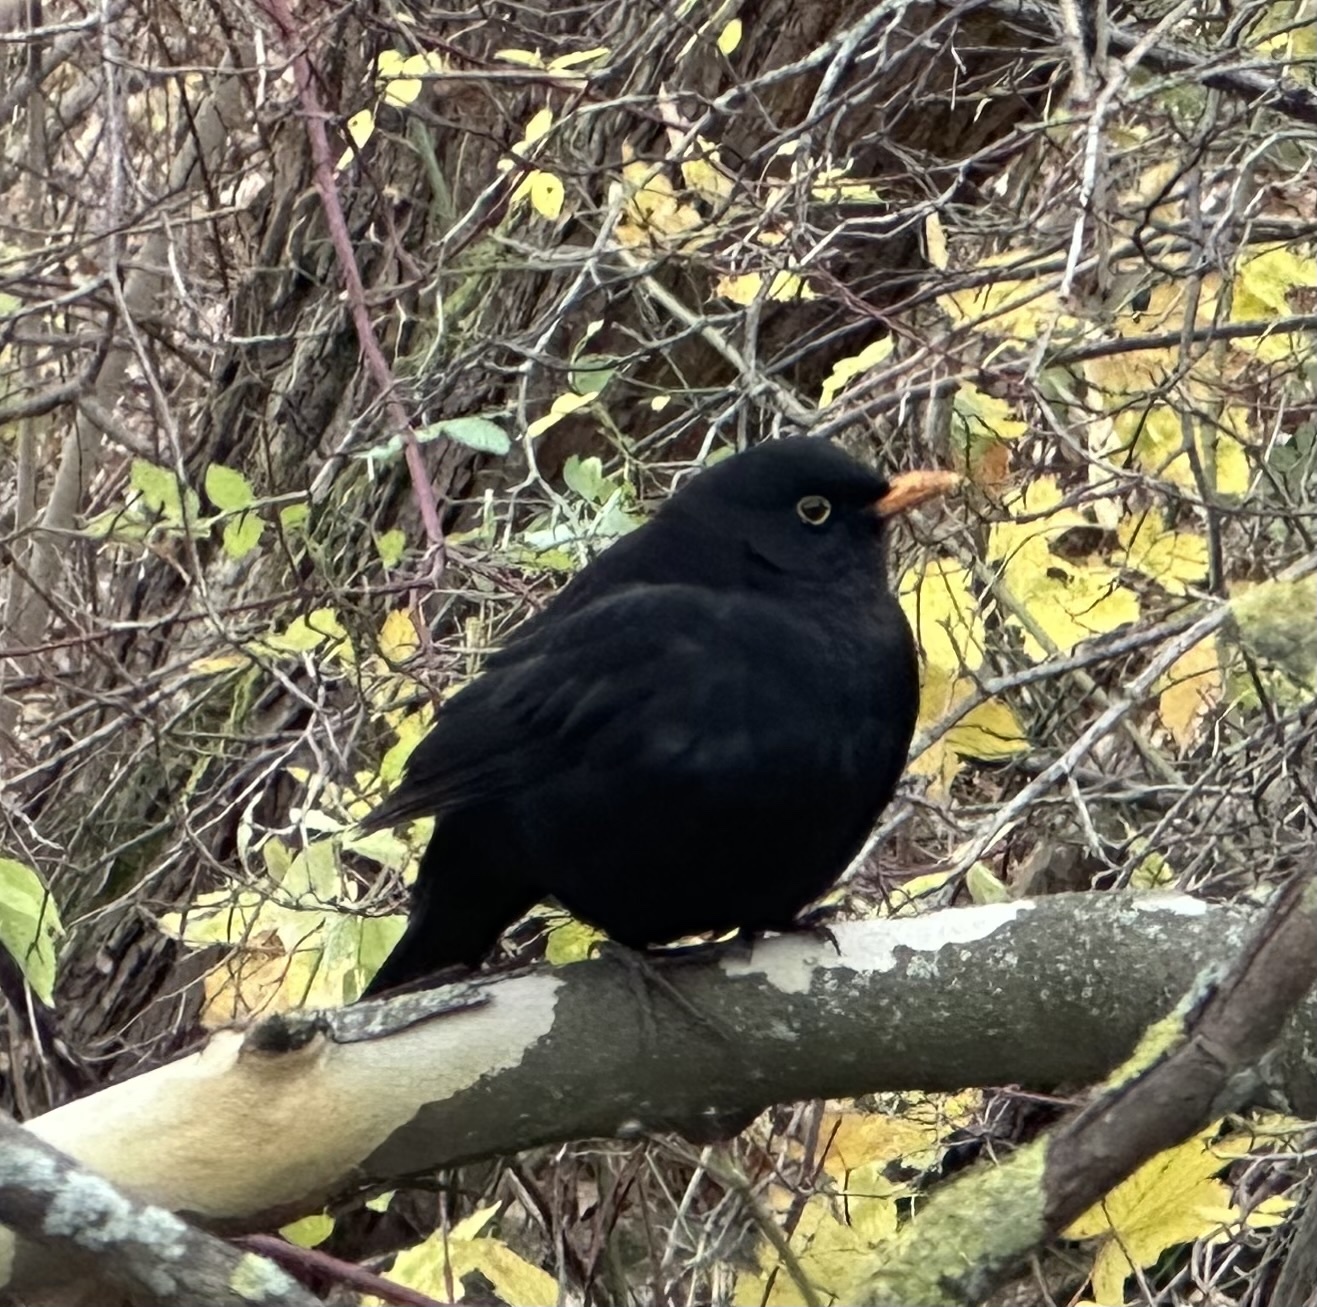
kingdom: Animalia
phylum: Chordata
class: Aves
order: Passeriformes
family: Turdidae
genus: Turdus
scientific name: Turdus merula
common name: Common blackbird
